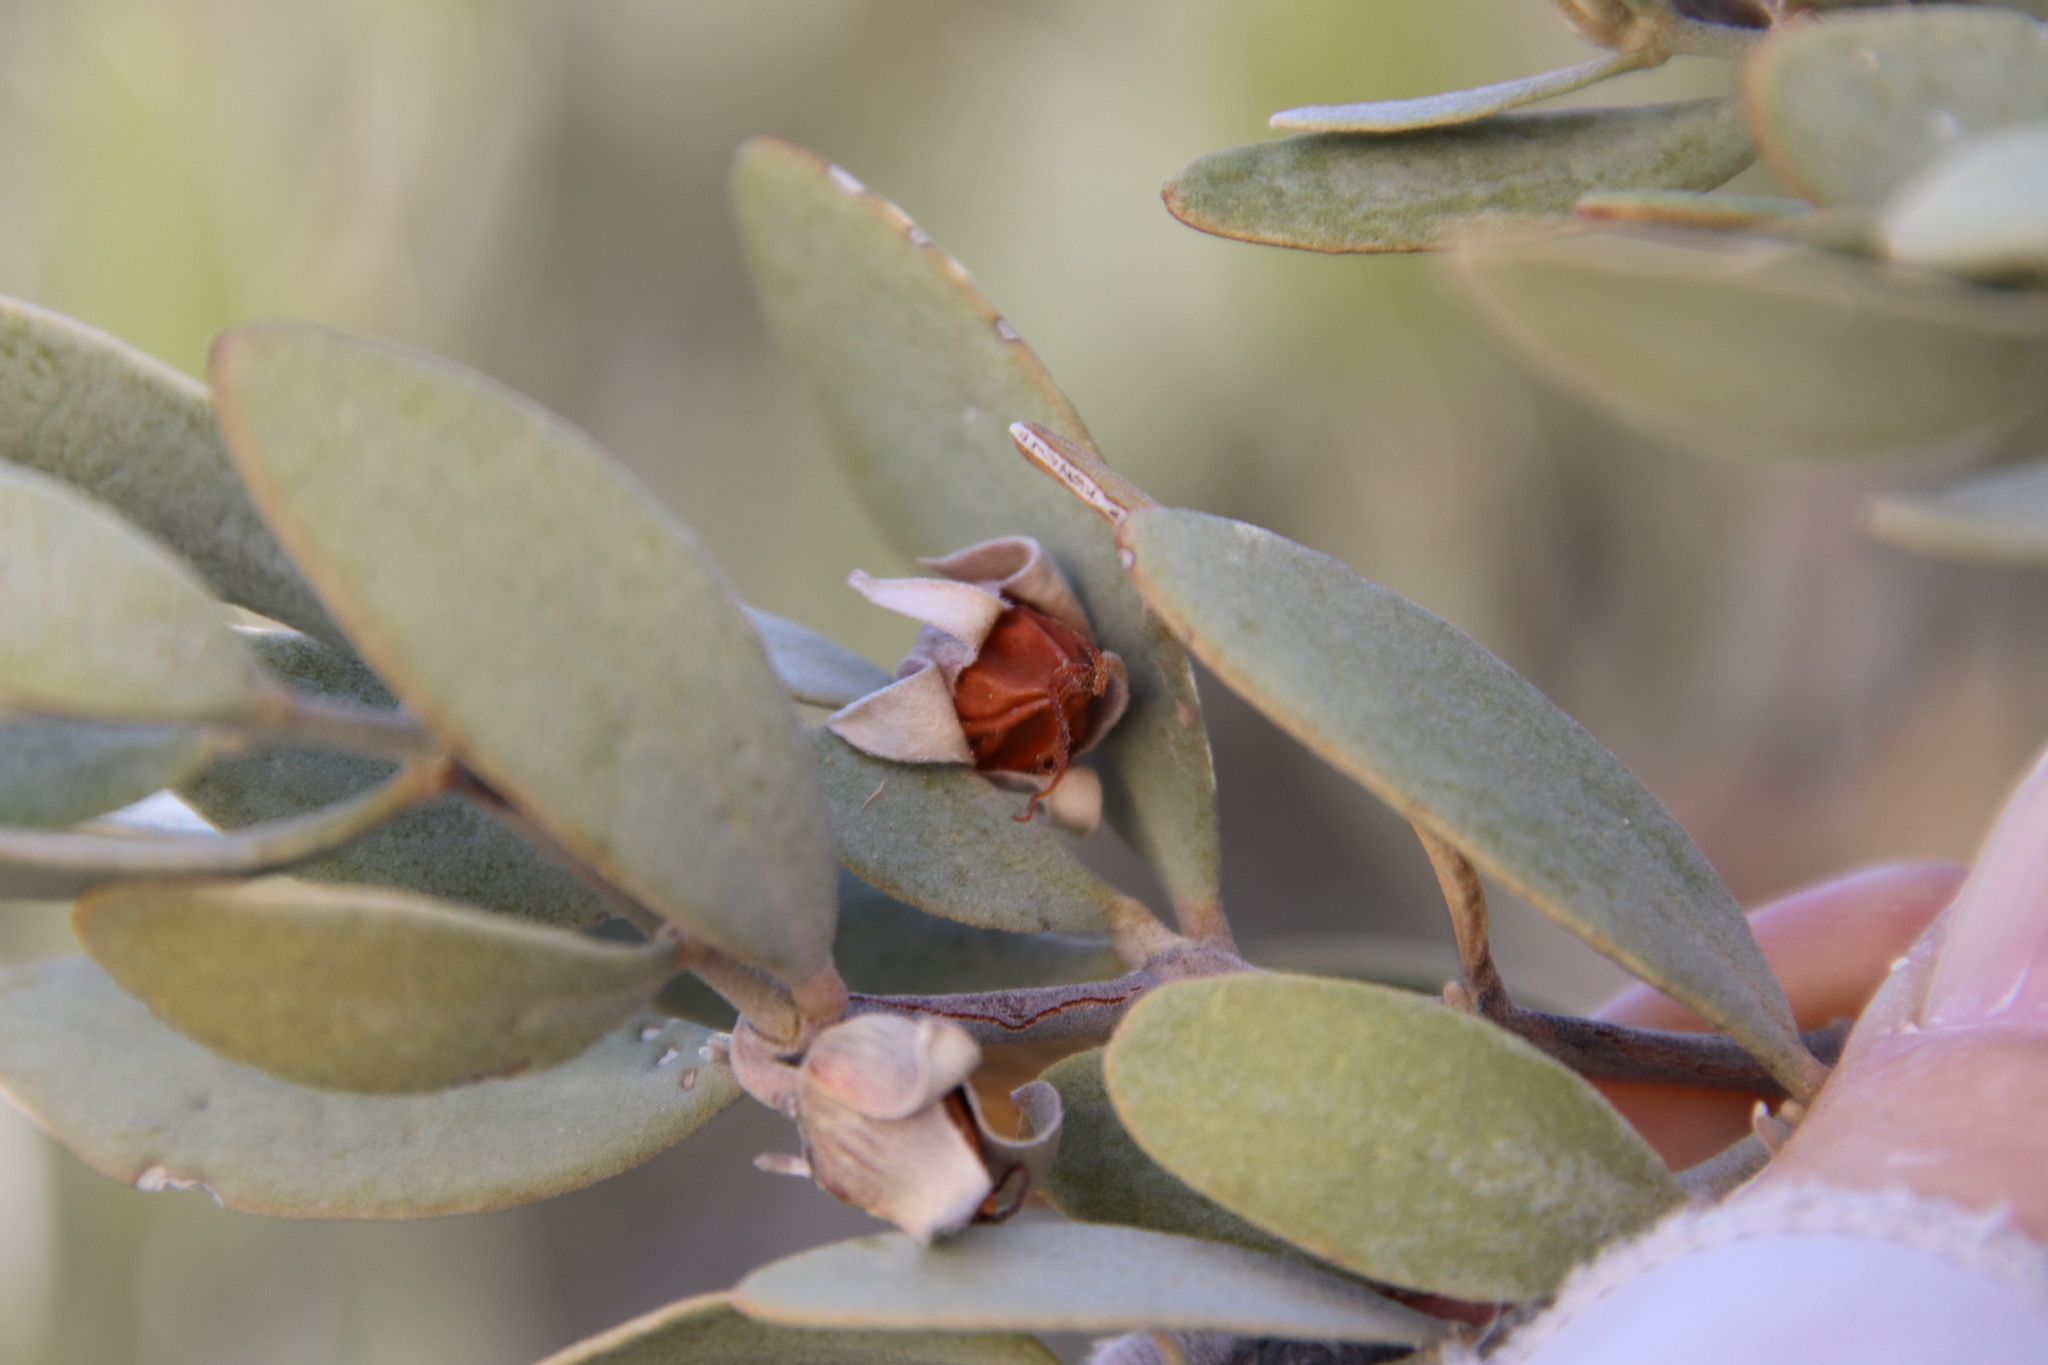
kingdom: Plantae
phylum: Tracheophyta
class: Magnoliopsida
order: Caryophyllales
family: Simmondsiaceae
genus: Simmondsia
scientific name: Simmondsia chinensis
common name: Jojoba
